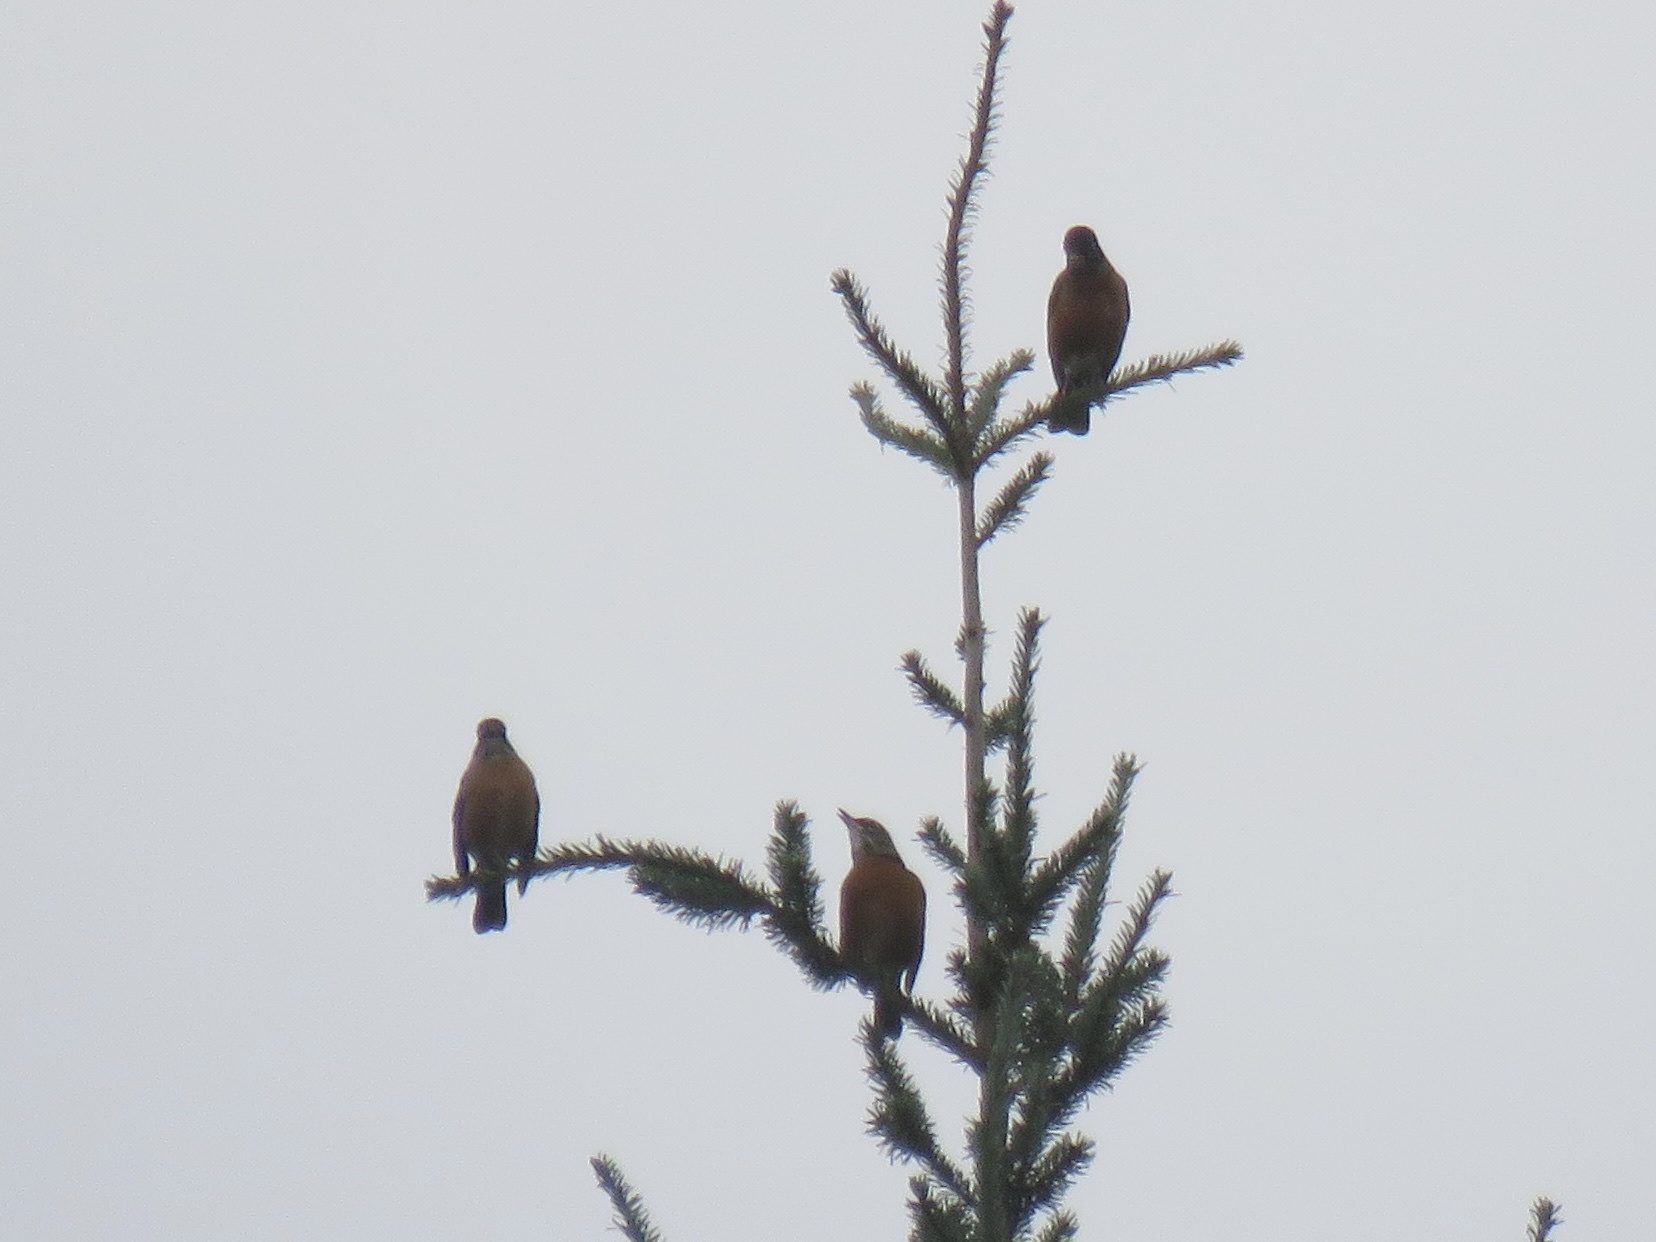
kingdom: Animalia
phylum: Chordata
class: Aves
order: Passeriformes
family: Turdidae
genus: Turdus
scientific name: Turdus migratorius
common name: American robin
